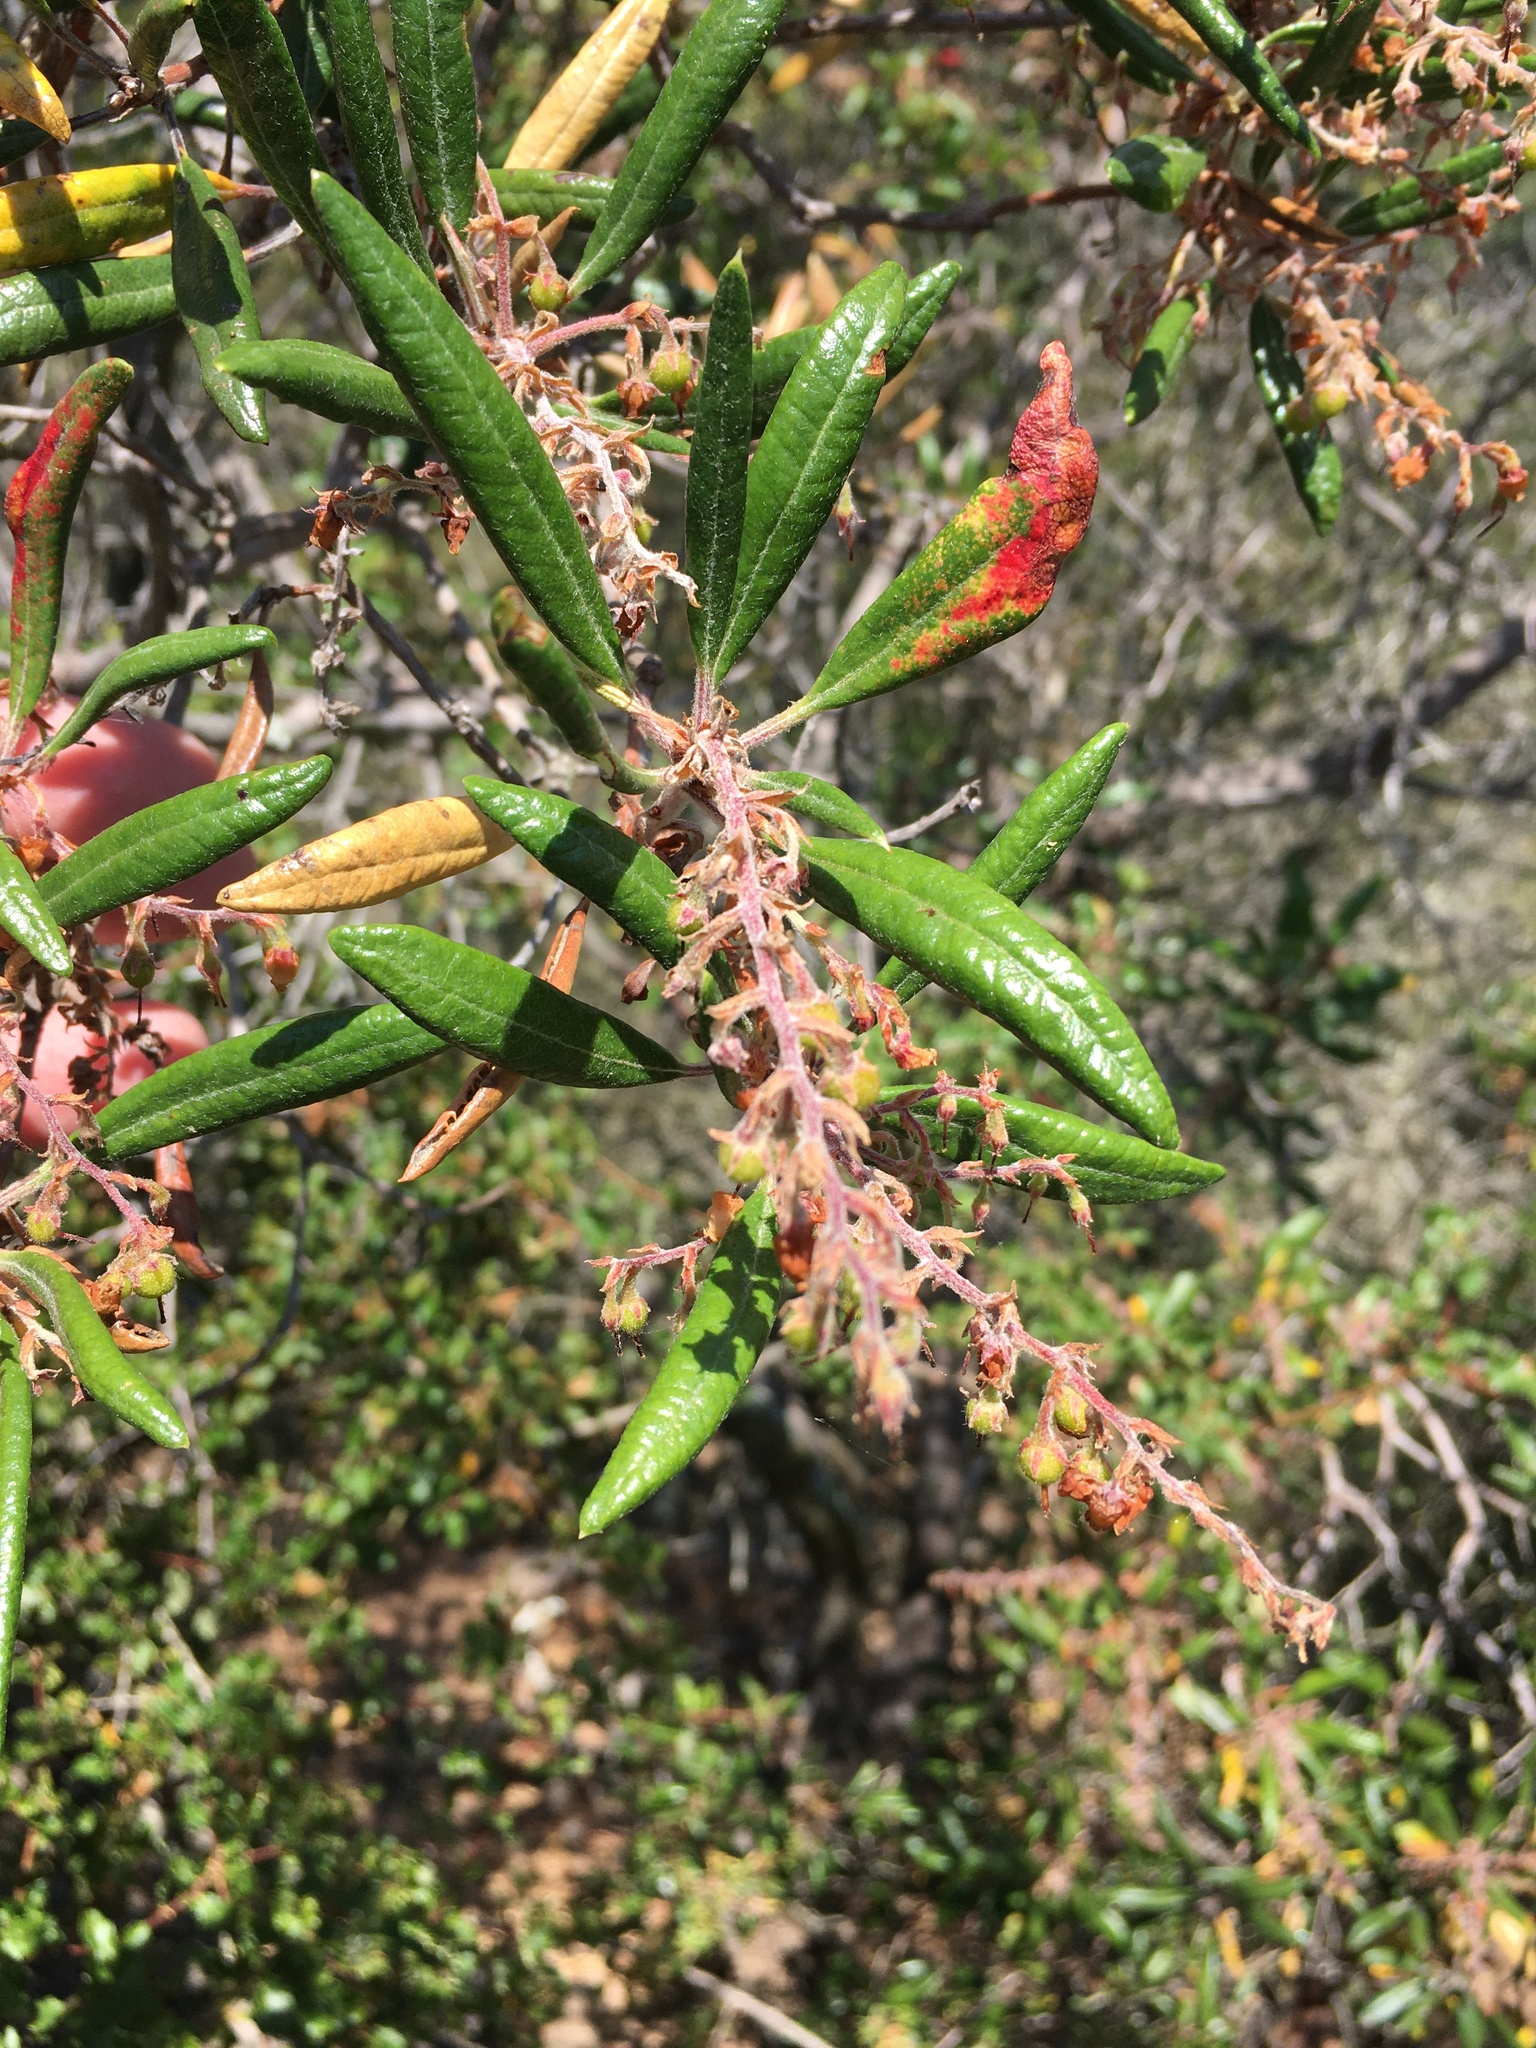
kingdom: Plantae
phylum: Tracheophyta
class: Magnoliopsida
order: Ericales
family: Ericaceae
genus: Comarostaphylis
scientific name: Comarostaphylis diversifolia
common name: Summer-holly
